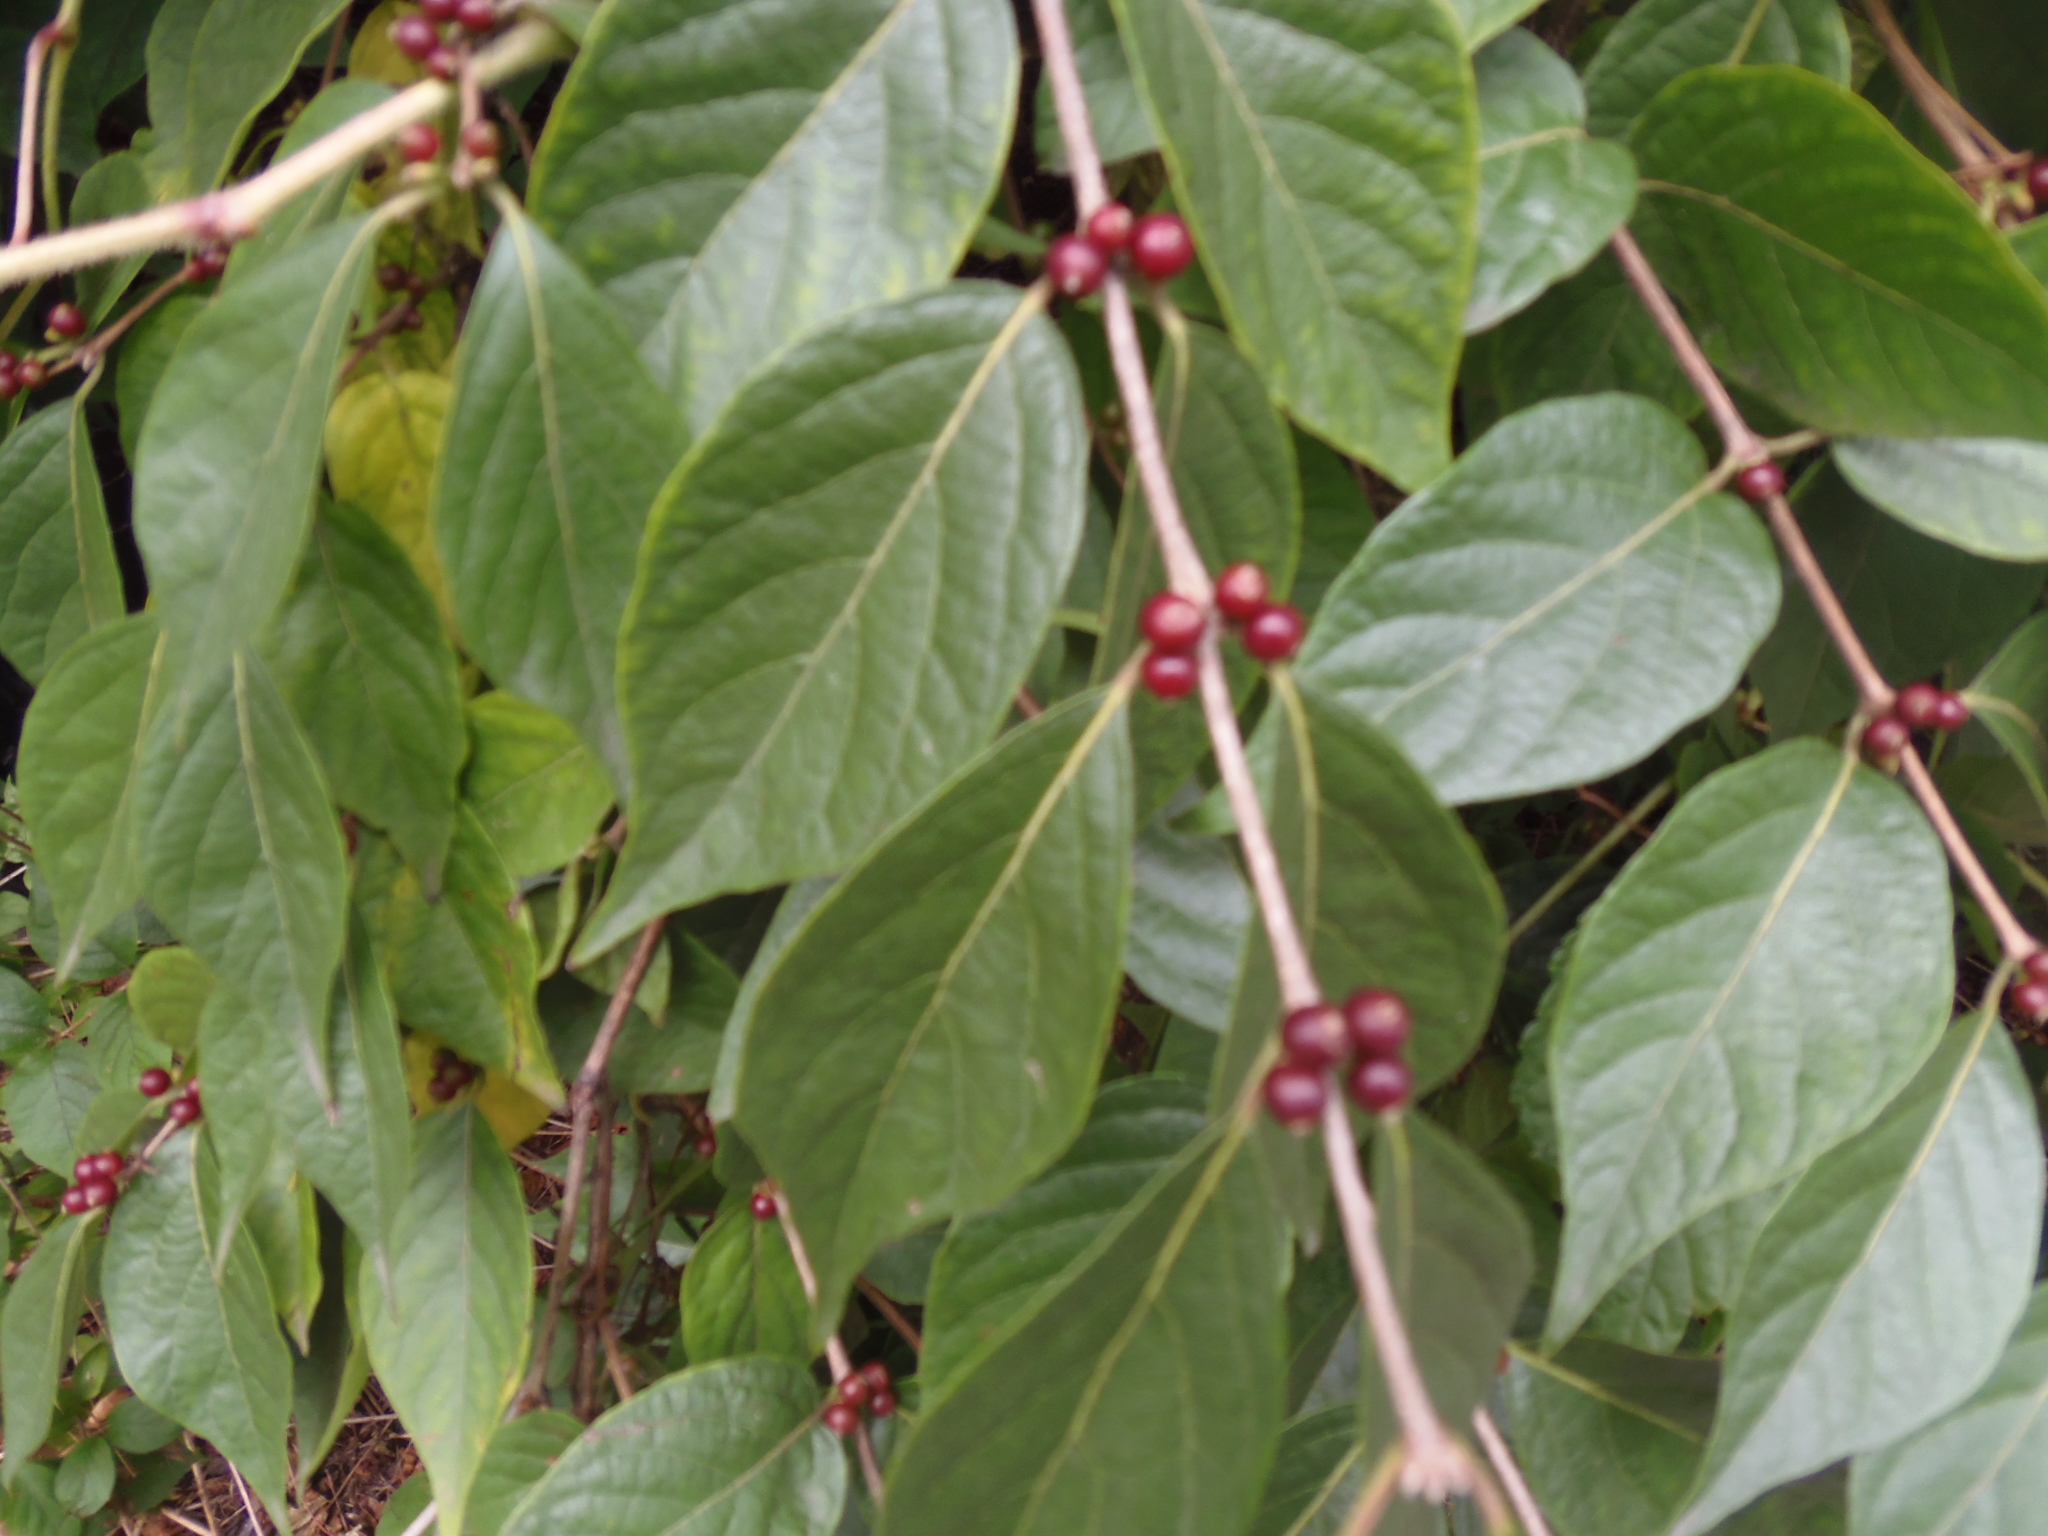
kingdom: Plantae
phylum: Tracheophyta
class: Magnoliopsida
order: Dipsacales
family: Caprifoliaceae
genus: Lonicera
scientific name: Lonicera maackii
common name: Amur honeysuckle
